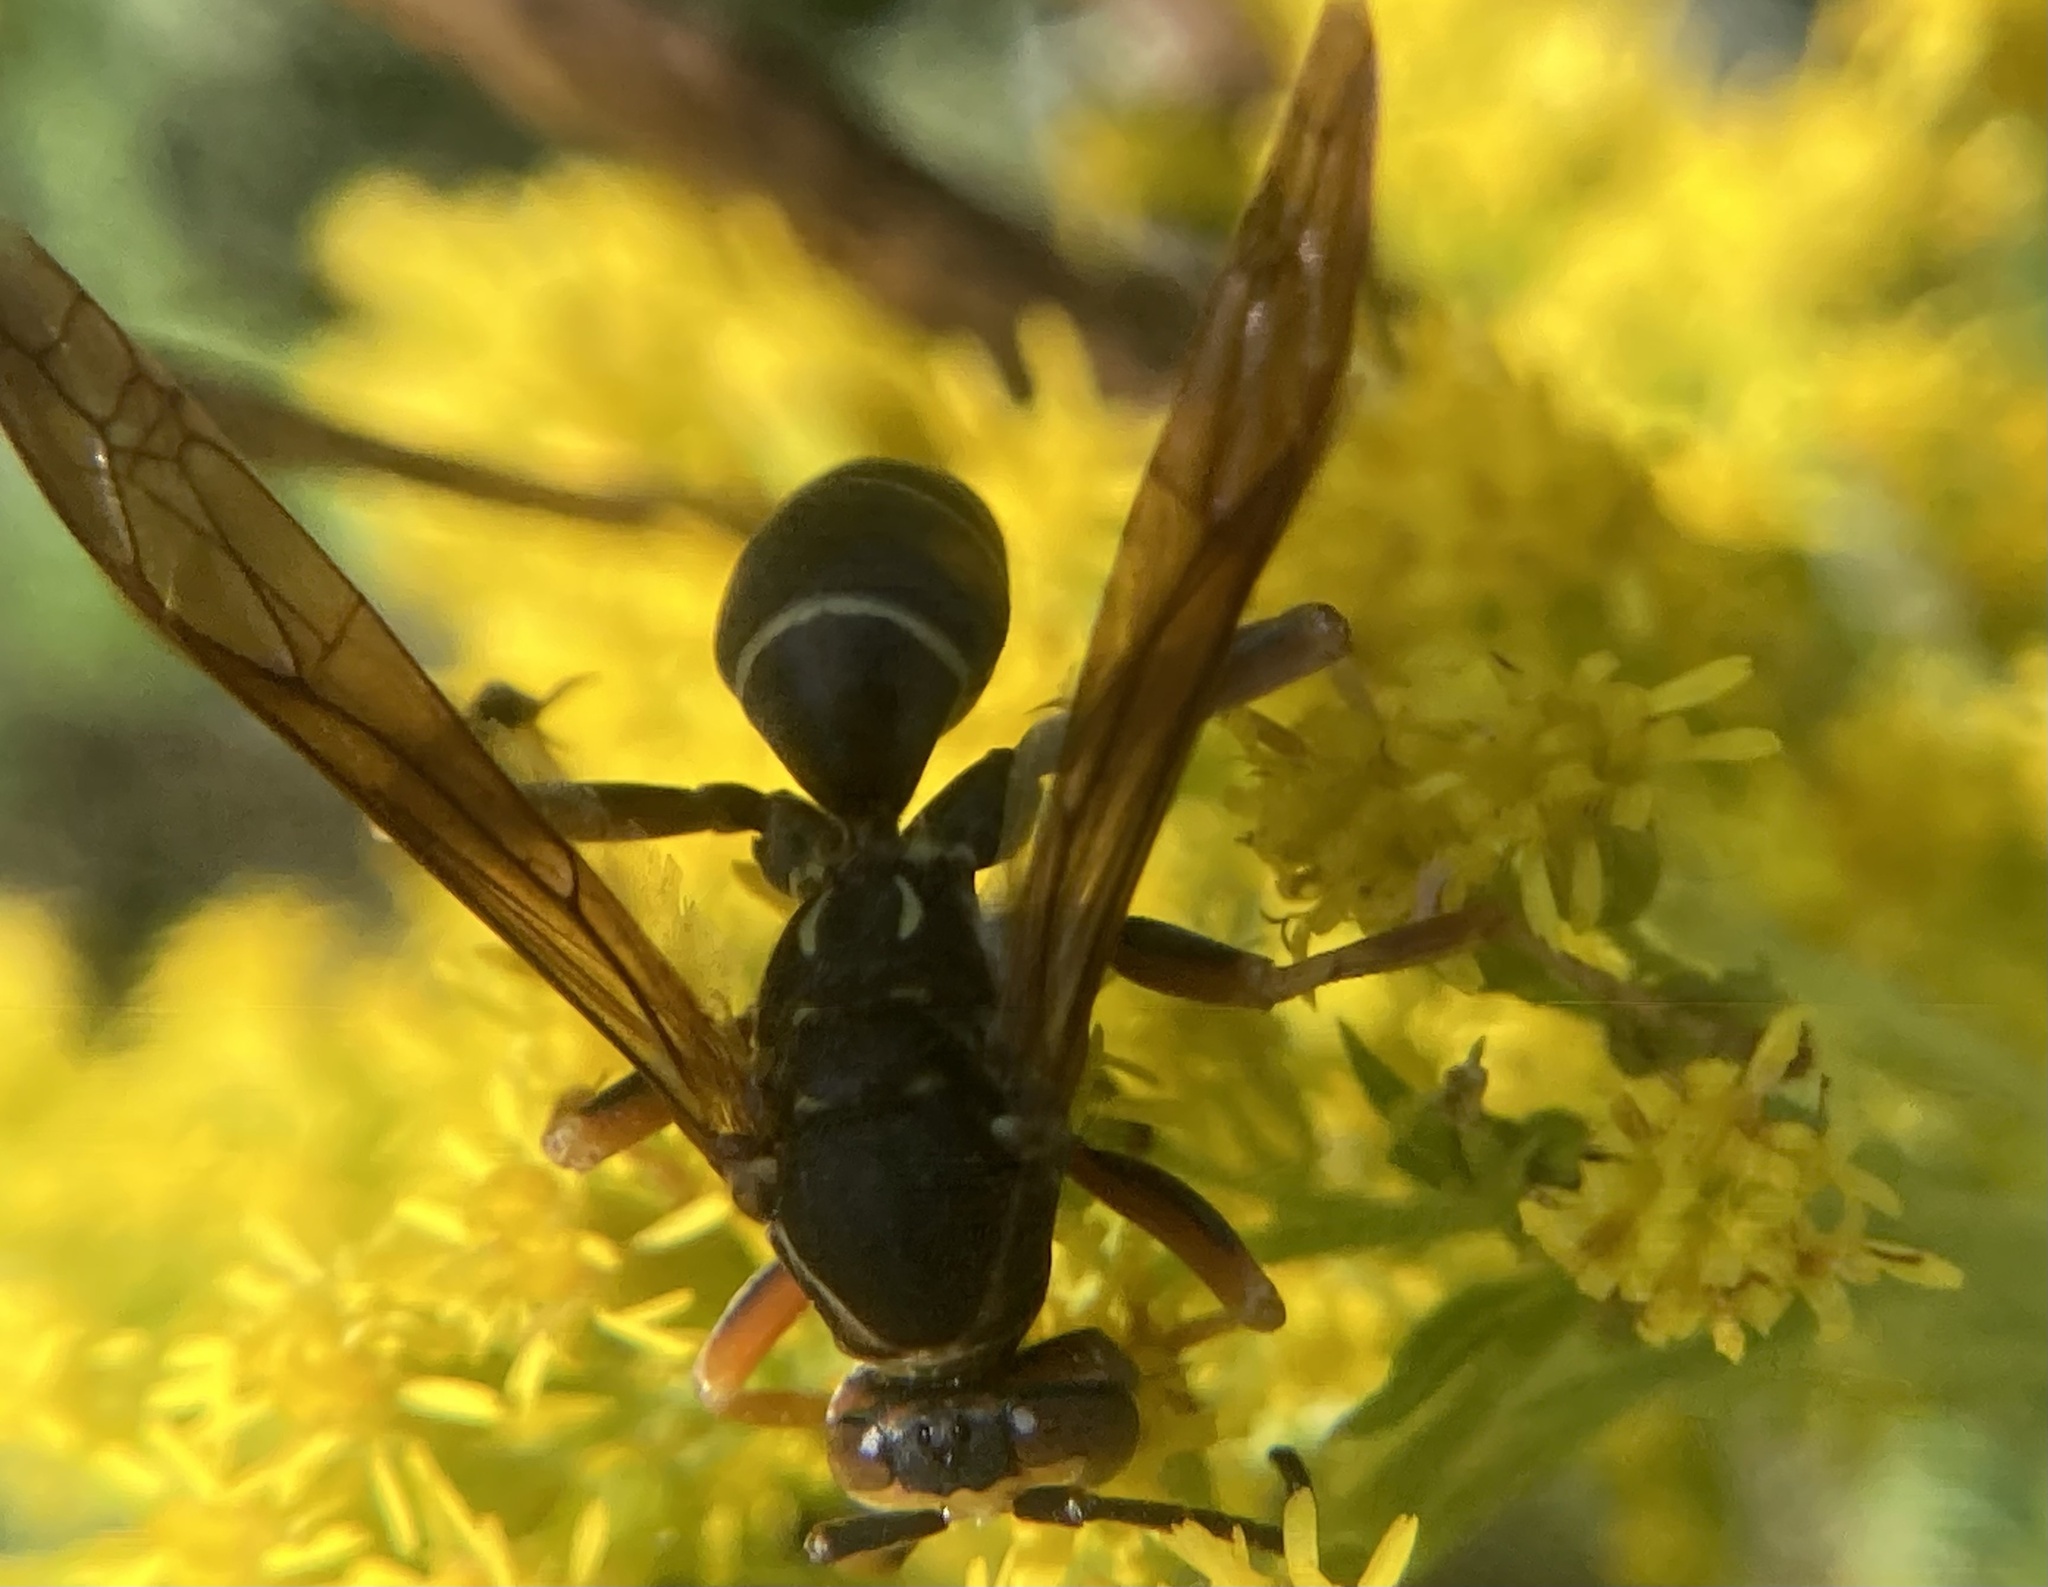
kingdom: Animalia
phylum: Arthropoda
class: Insecta
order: Hymenoptera
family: Eumenidae
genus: Polistes
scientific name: Polistes fuscatus
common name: Dark paper wasp
